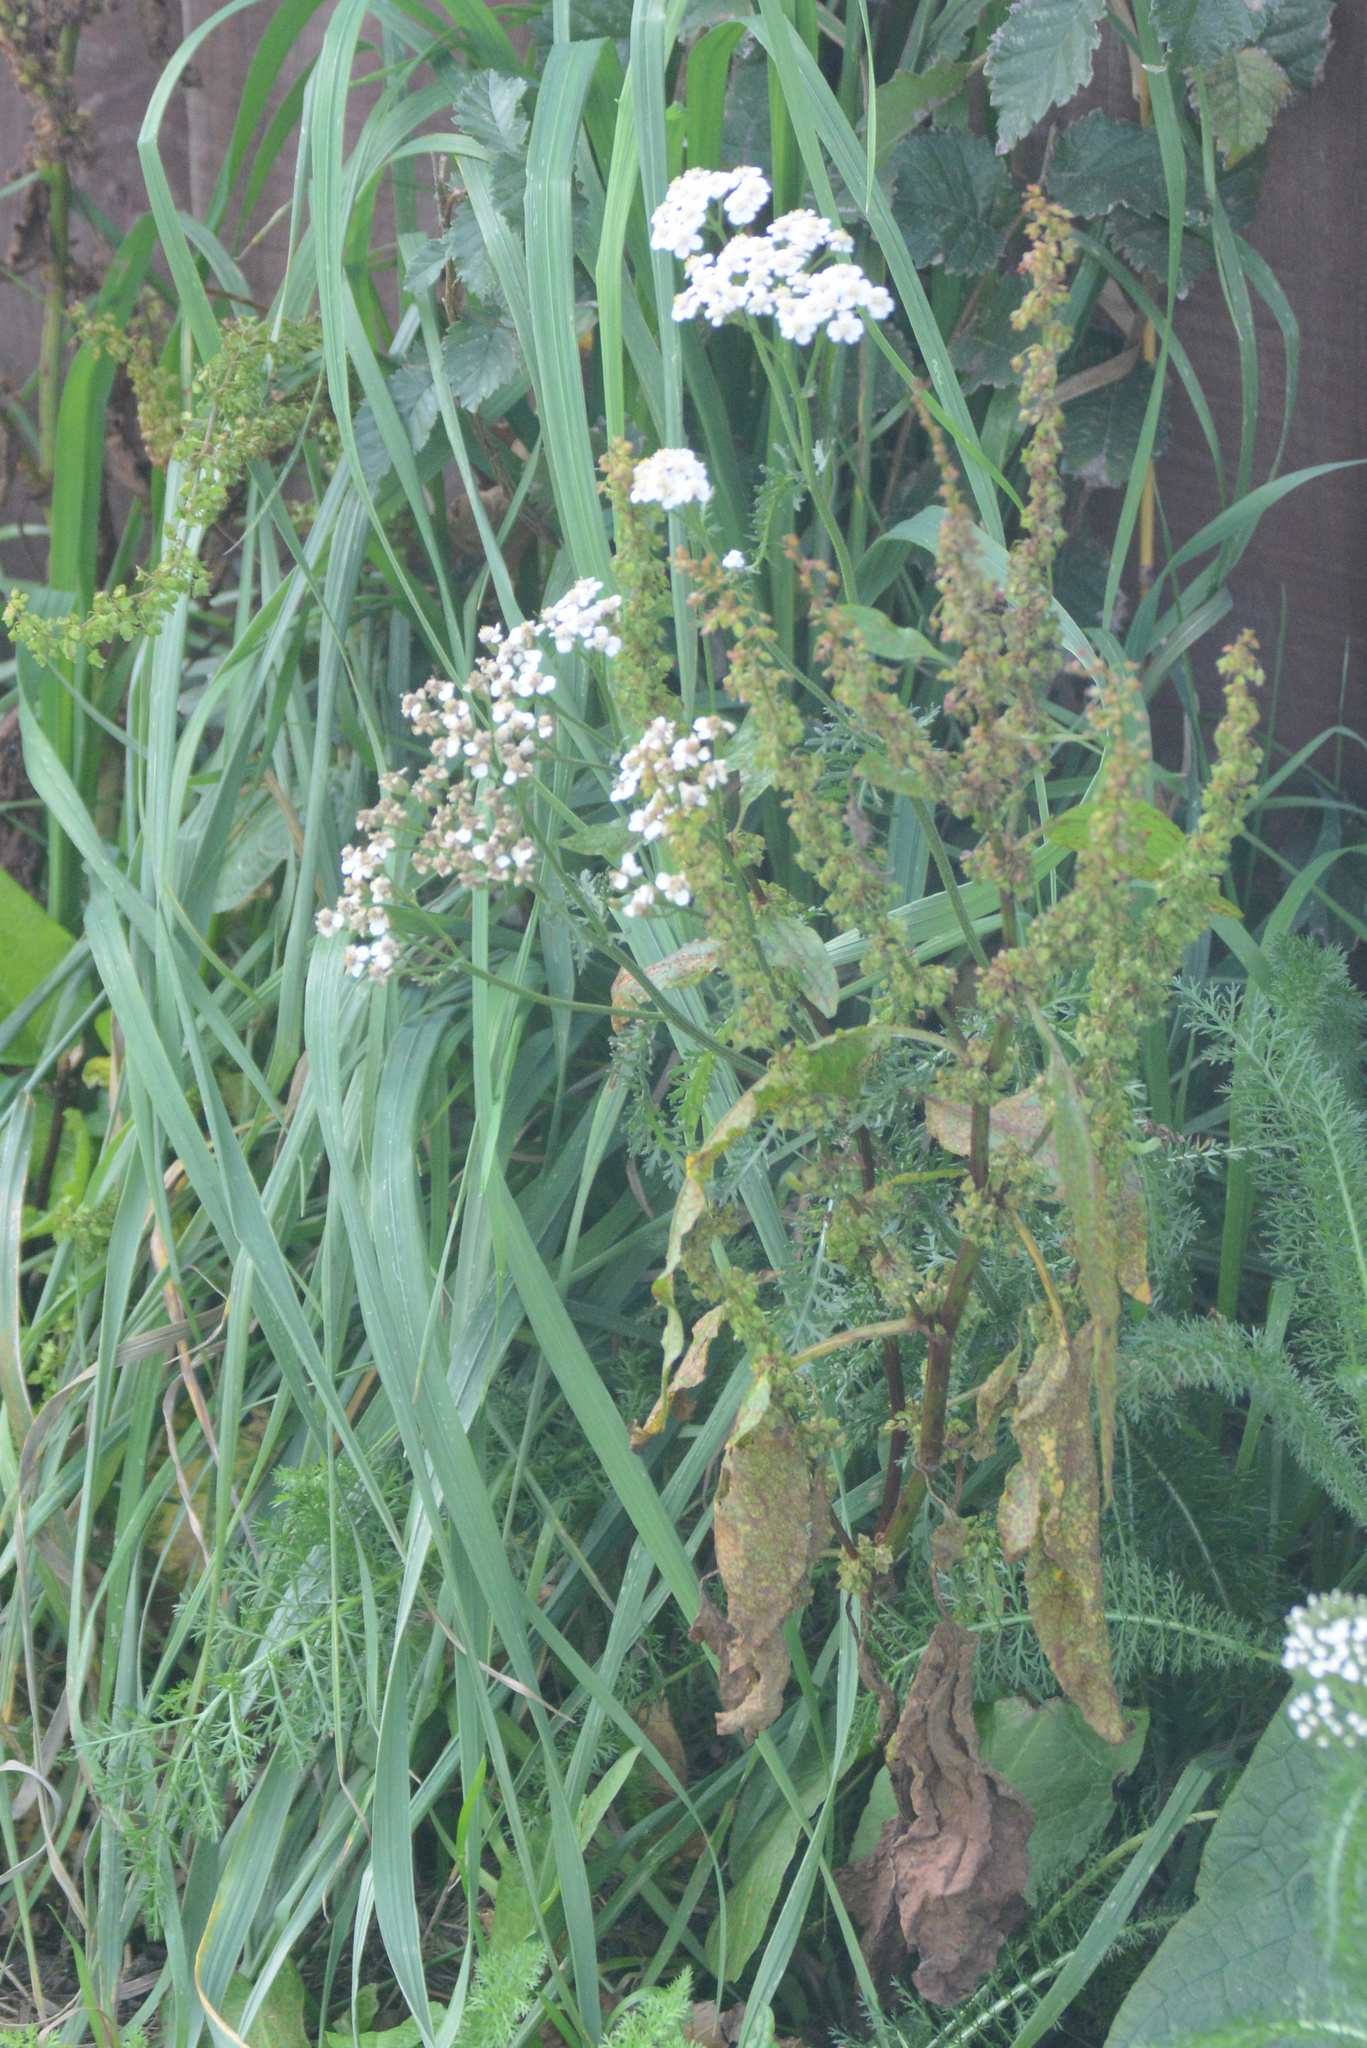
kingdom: Plantae
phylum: Tracheophyta
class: Magnoliopsida
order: Asterales
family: Asteraceae
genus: Achillea
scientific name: Achillea millefolium
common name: Yarrow
